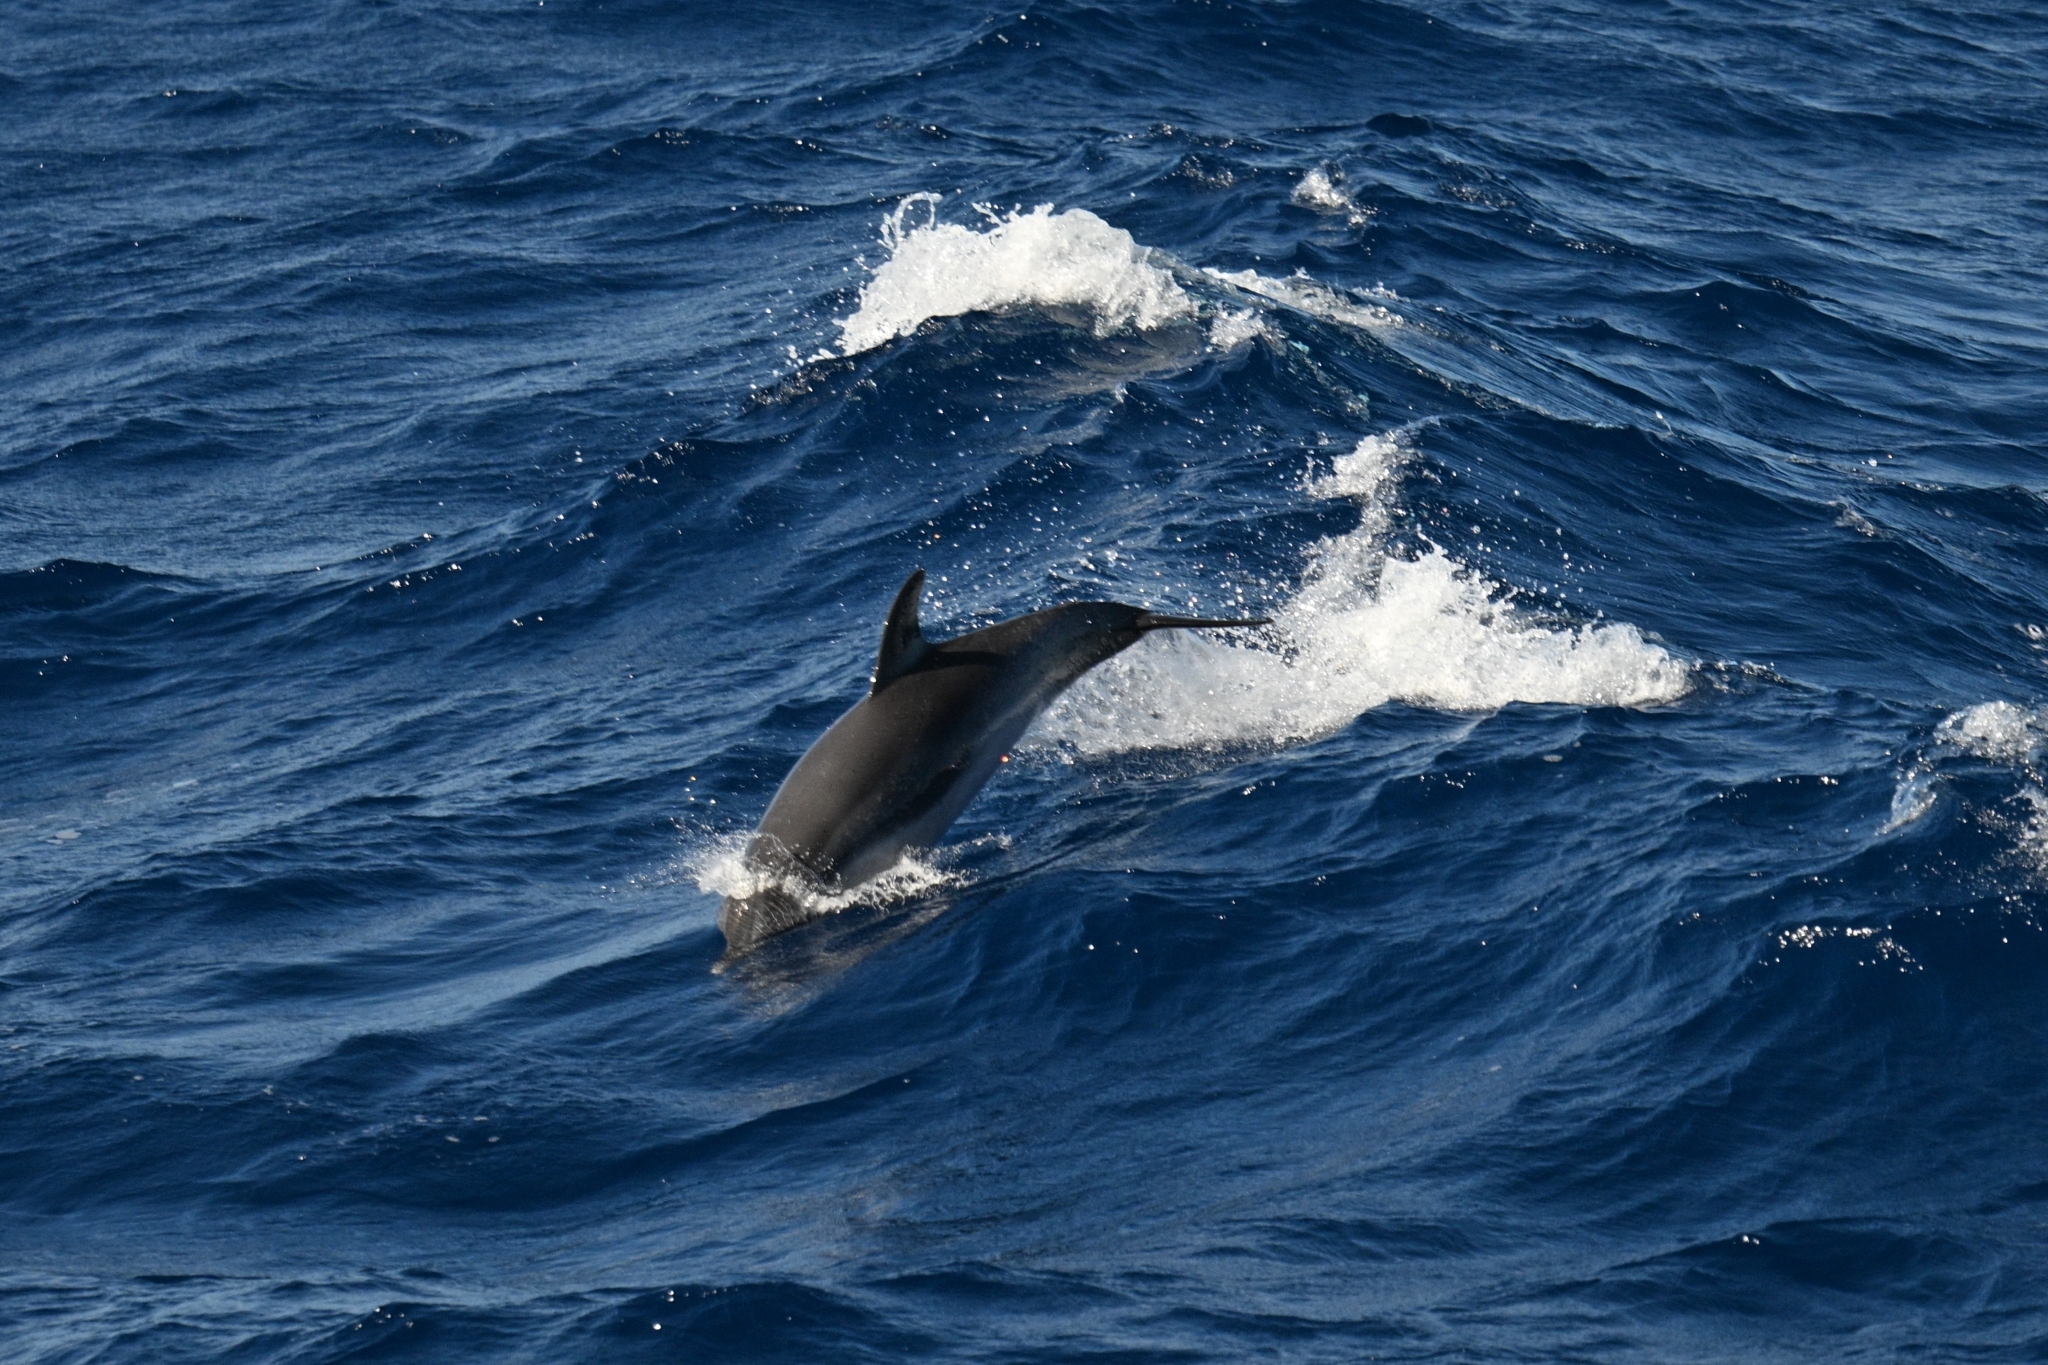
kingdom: Animalia
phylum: Chordata
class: Mammalia
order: Cetacea
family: Delphinidae
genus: Stenella
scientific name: Stenella frontalis
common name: Atlantic spotted dolphin
